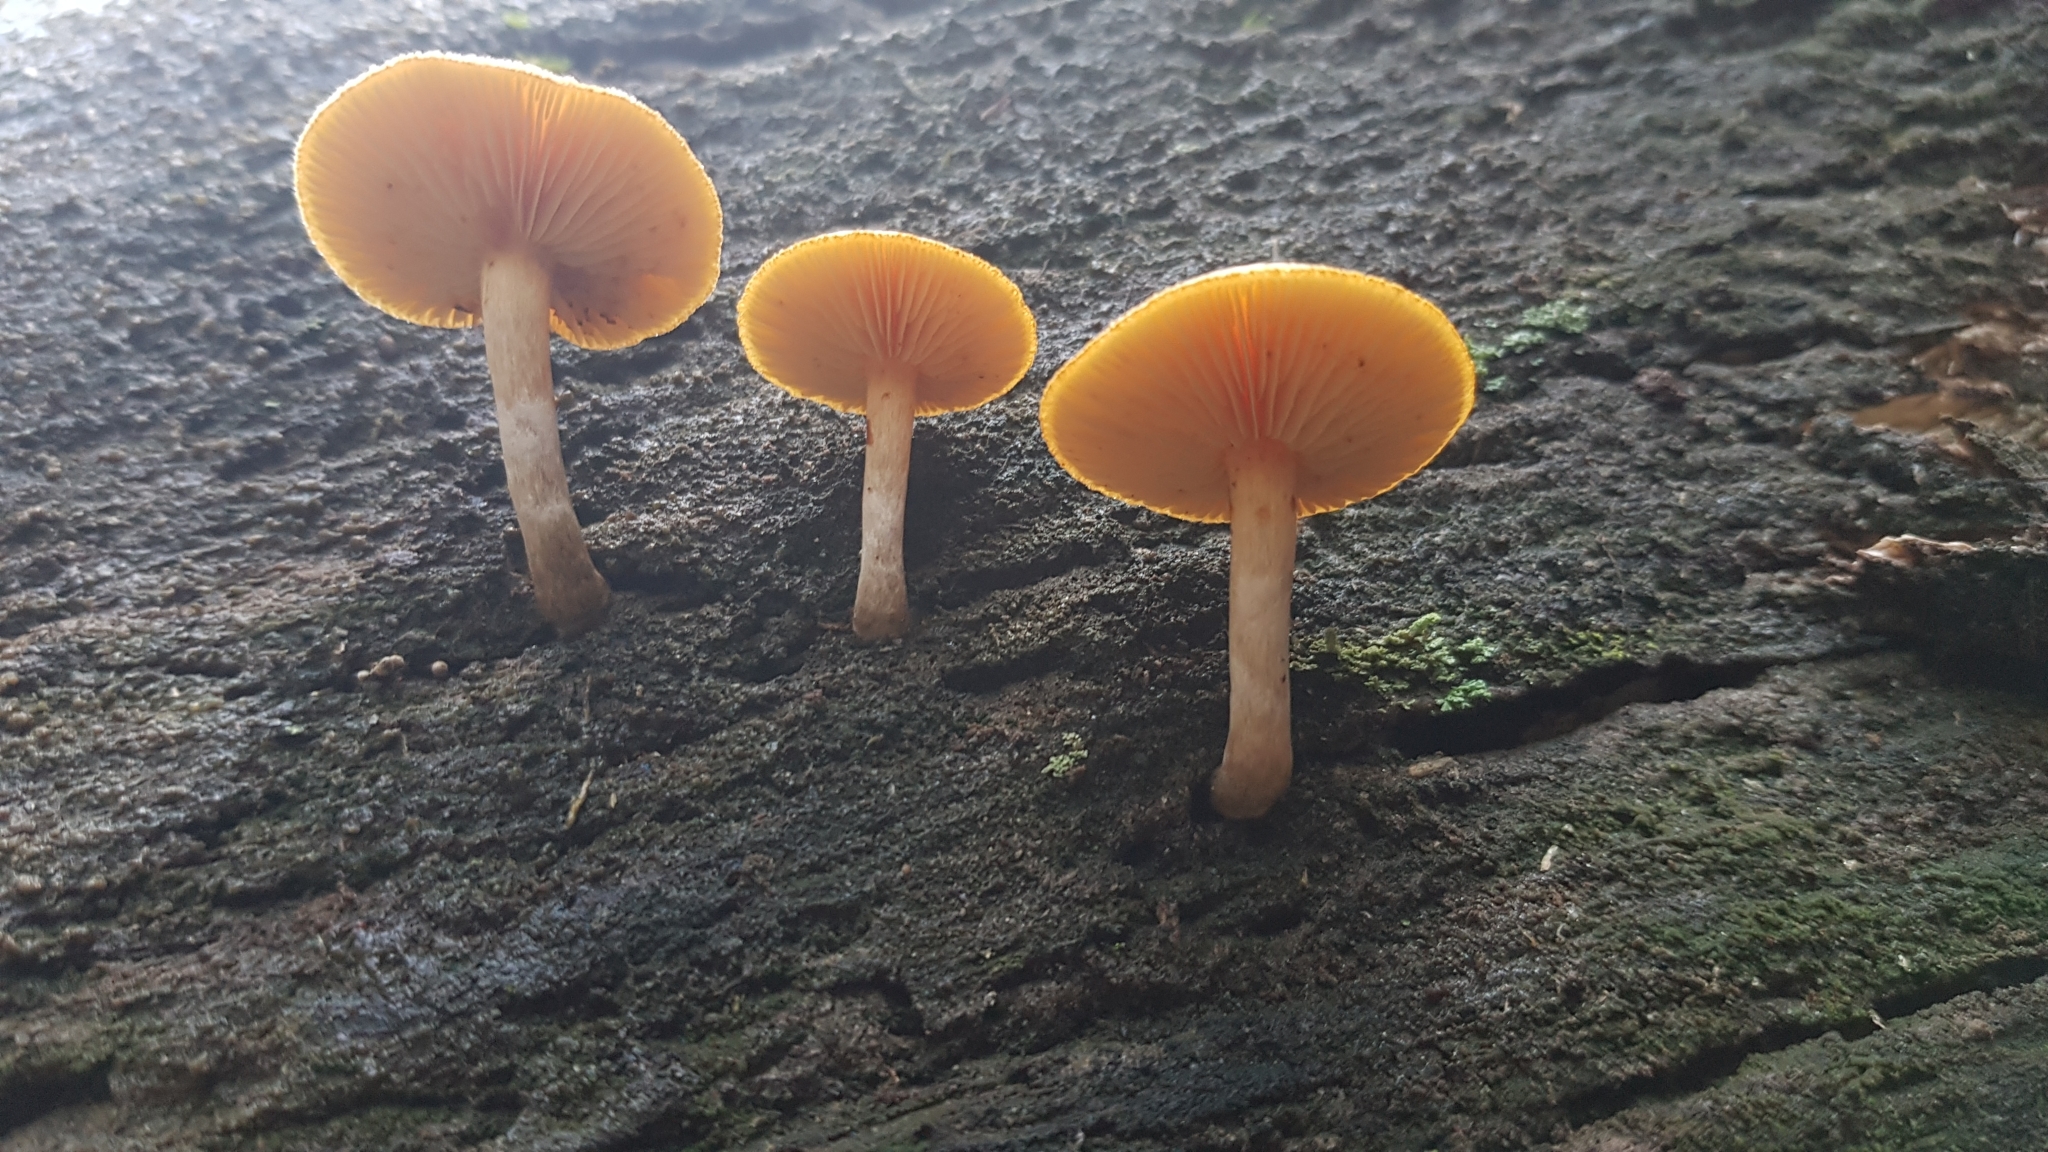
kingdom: Fungi
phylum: Basidiomycota
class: Agaricomycetes
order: Agaricales
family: Hymenogastraceae
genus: Gymnopilus
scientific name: Gymnopilus allantopus
